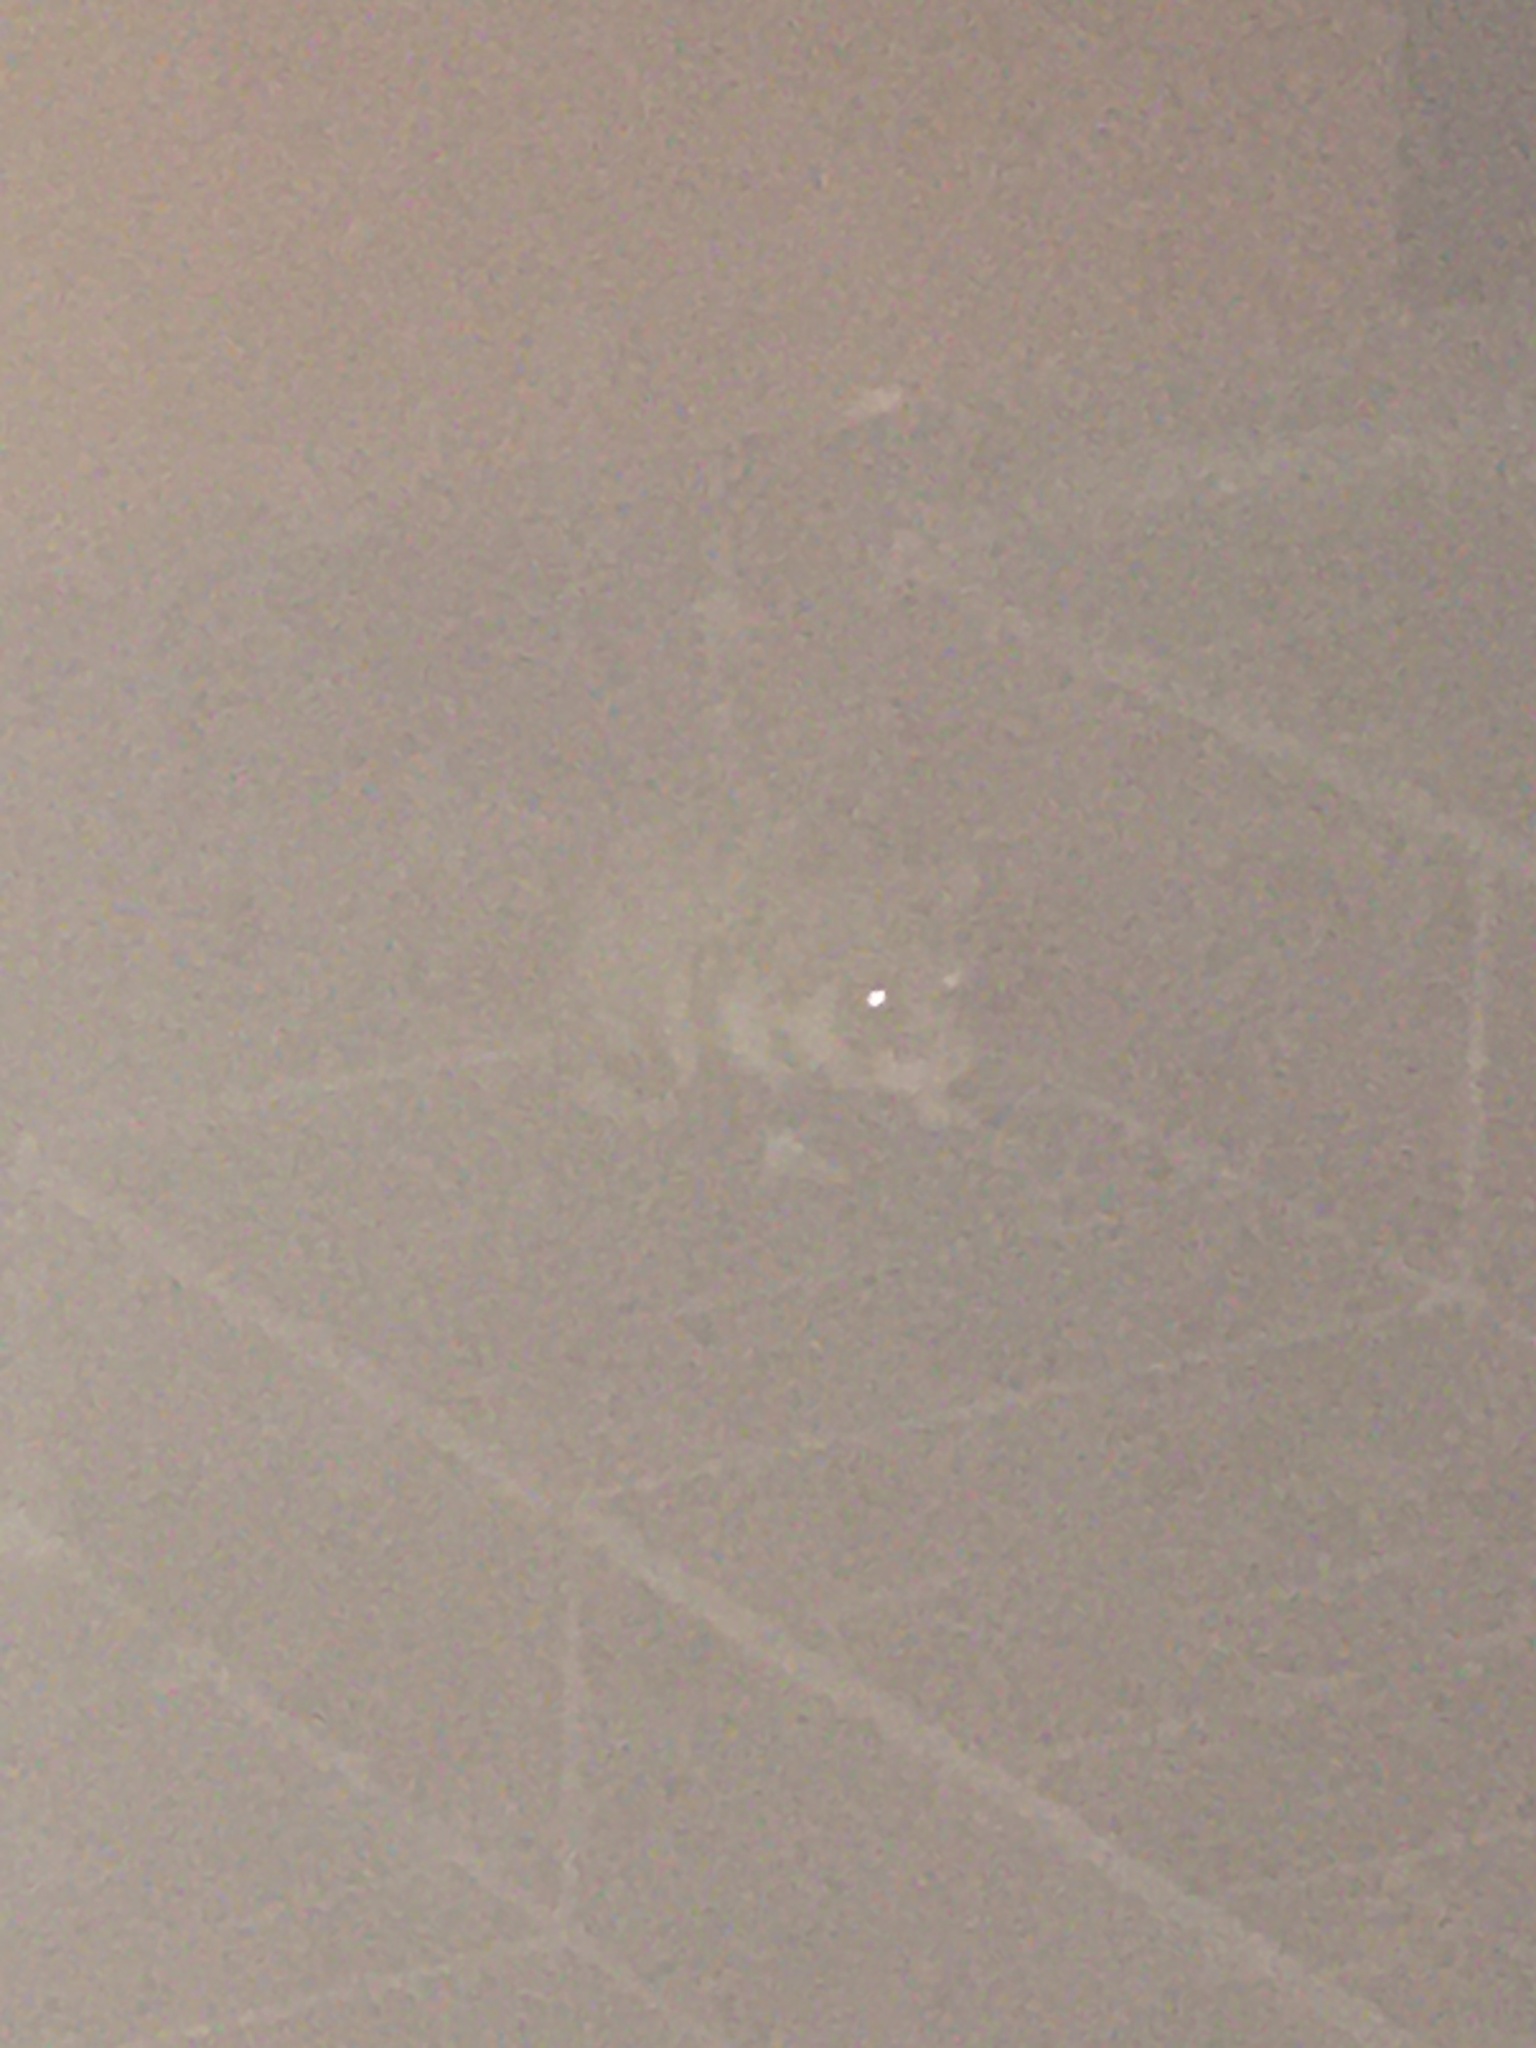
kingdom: Animalia
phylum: Chordata
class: Mammalia
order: Rodentia
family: Cricetidae
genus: Cricetus
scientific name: Cricetus cricetus
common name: Common hamster
